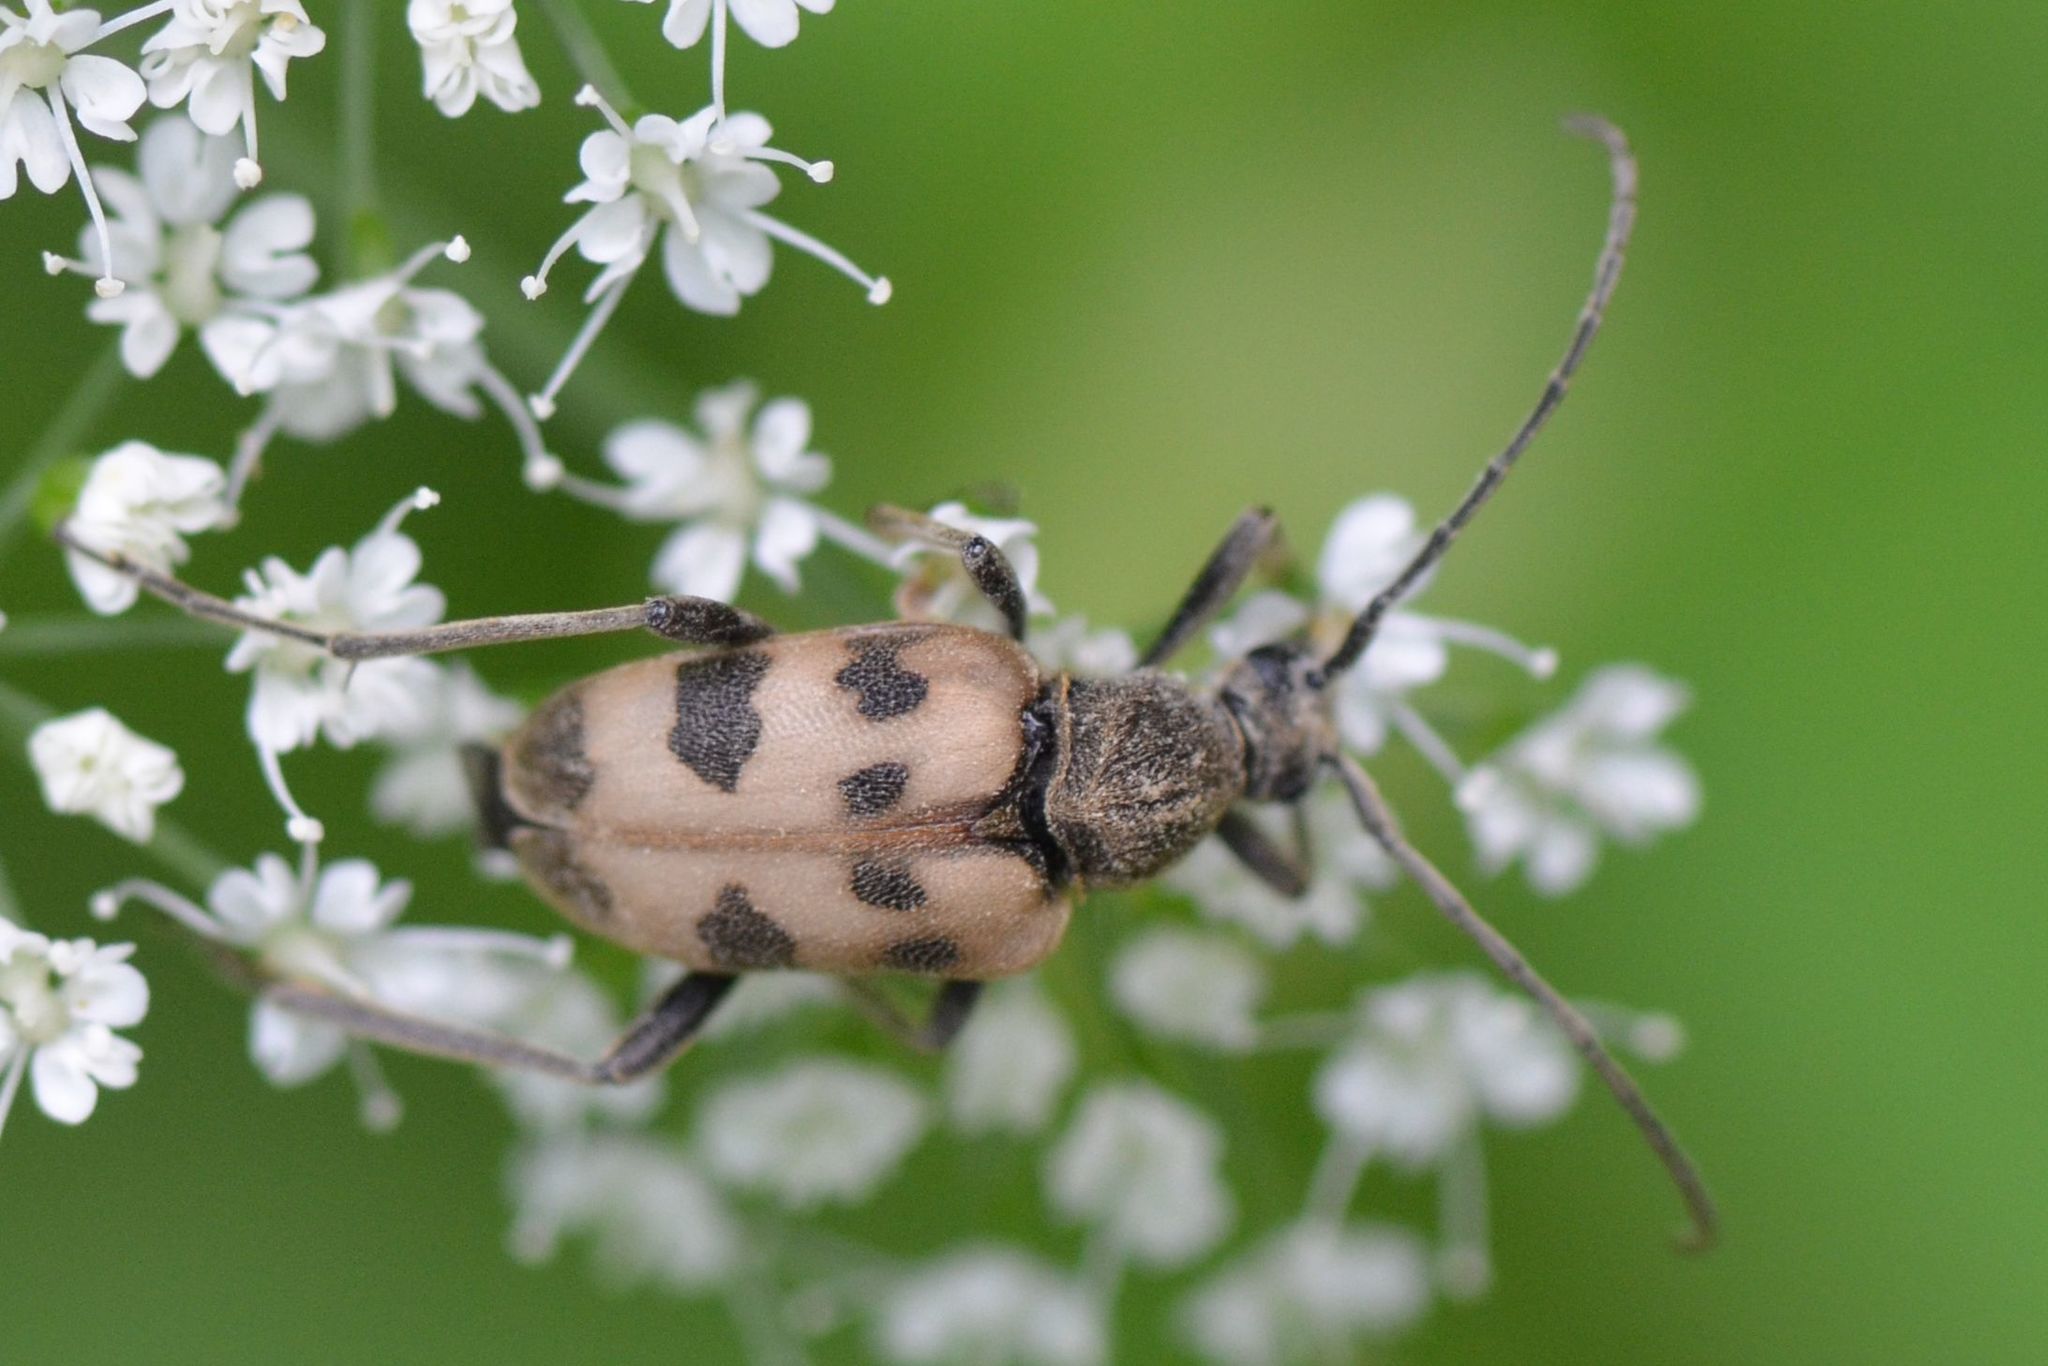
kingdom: Animalia
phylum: Arthropoda
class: Insecta
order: Coleoptera
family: Cerambycidae
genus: Pachytodes
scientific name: Pachytodes cerambyciformis
